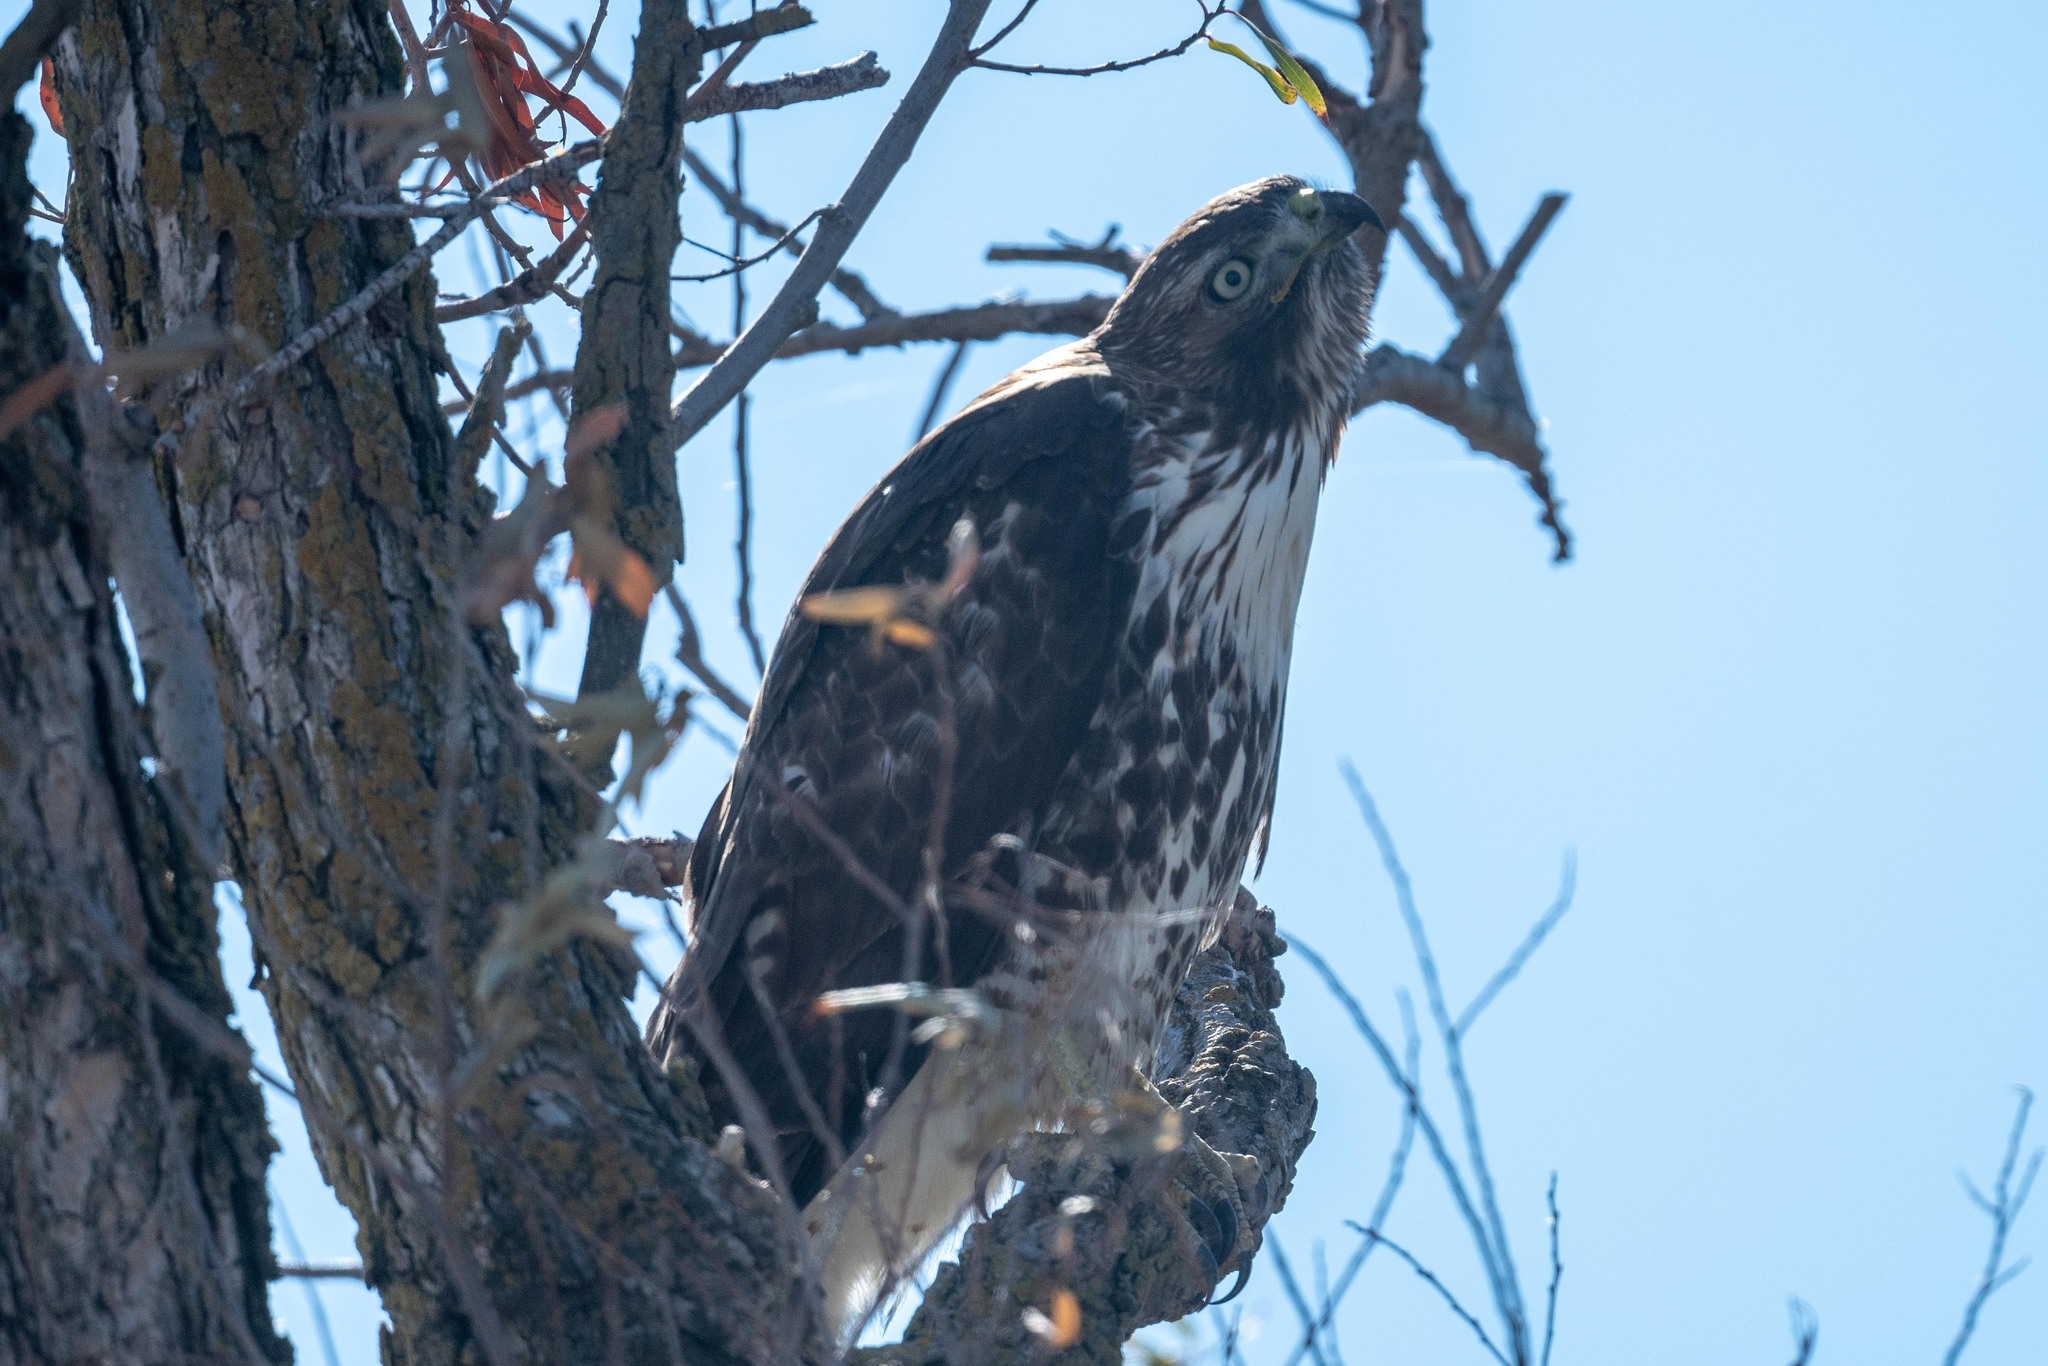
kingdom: Animalia
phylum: Chordata
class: Aves
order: Accipitriformes
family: Accipitridae
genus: Buteo
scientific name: Buteo jamaicensis
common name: Red-tailed hawk
